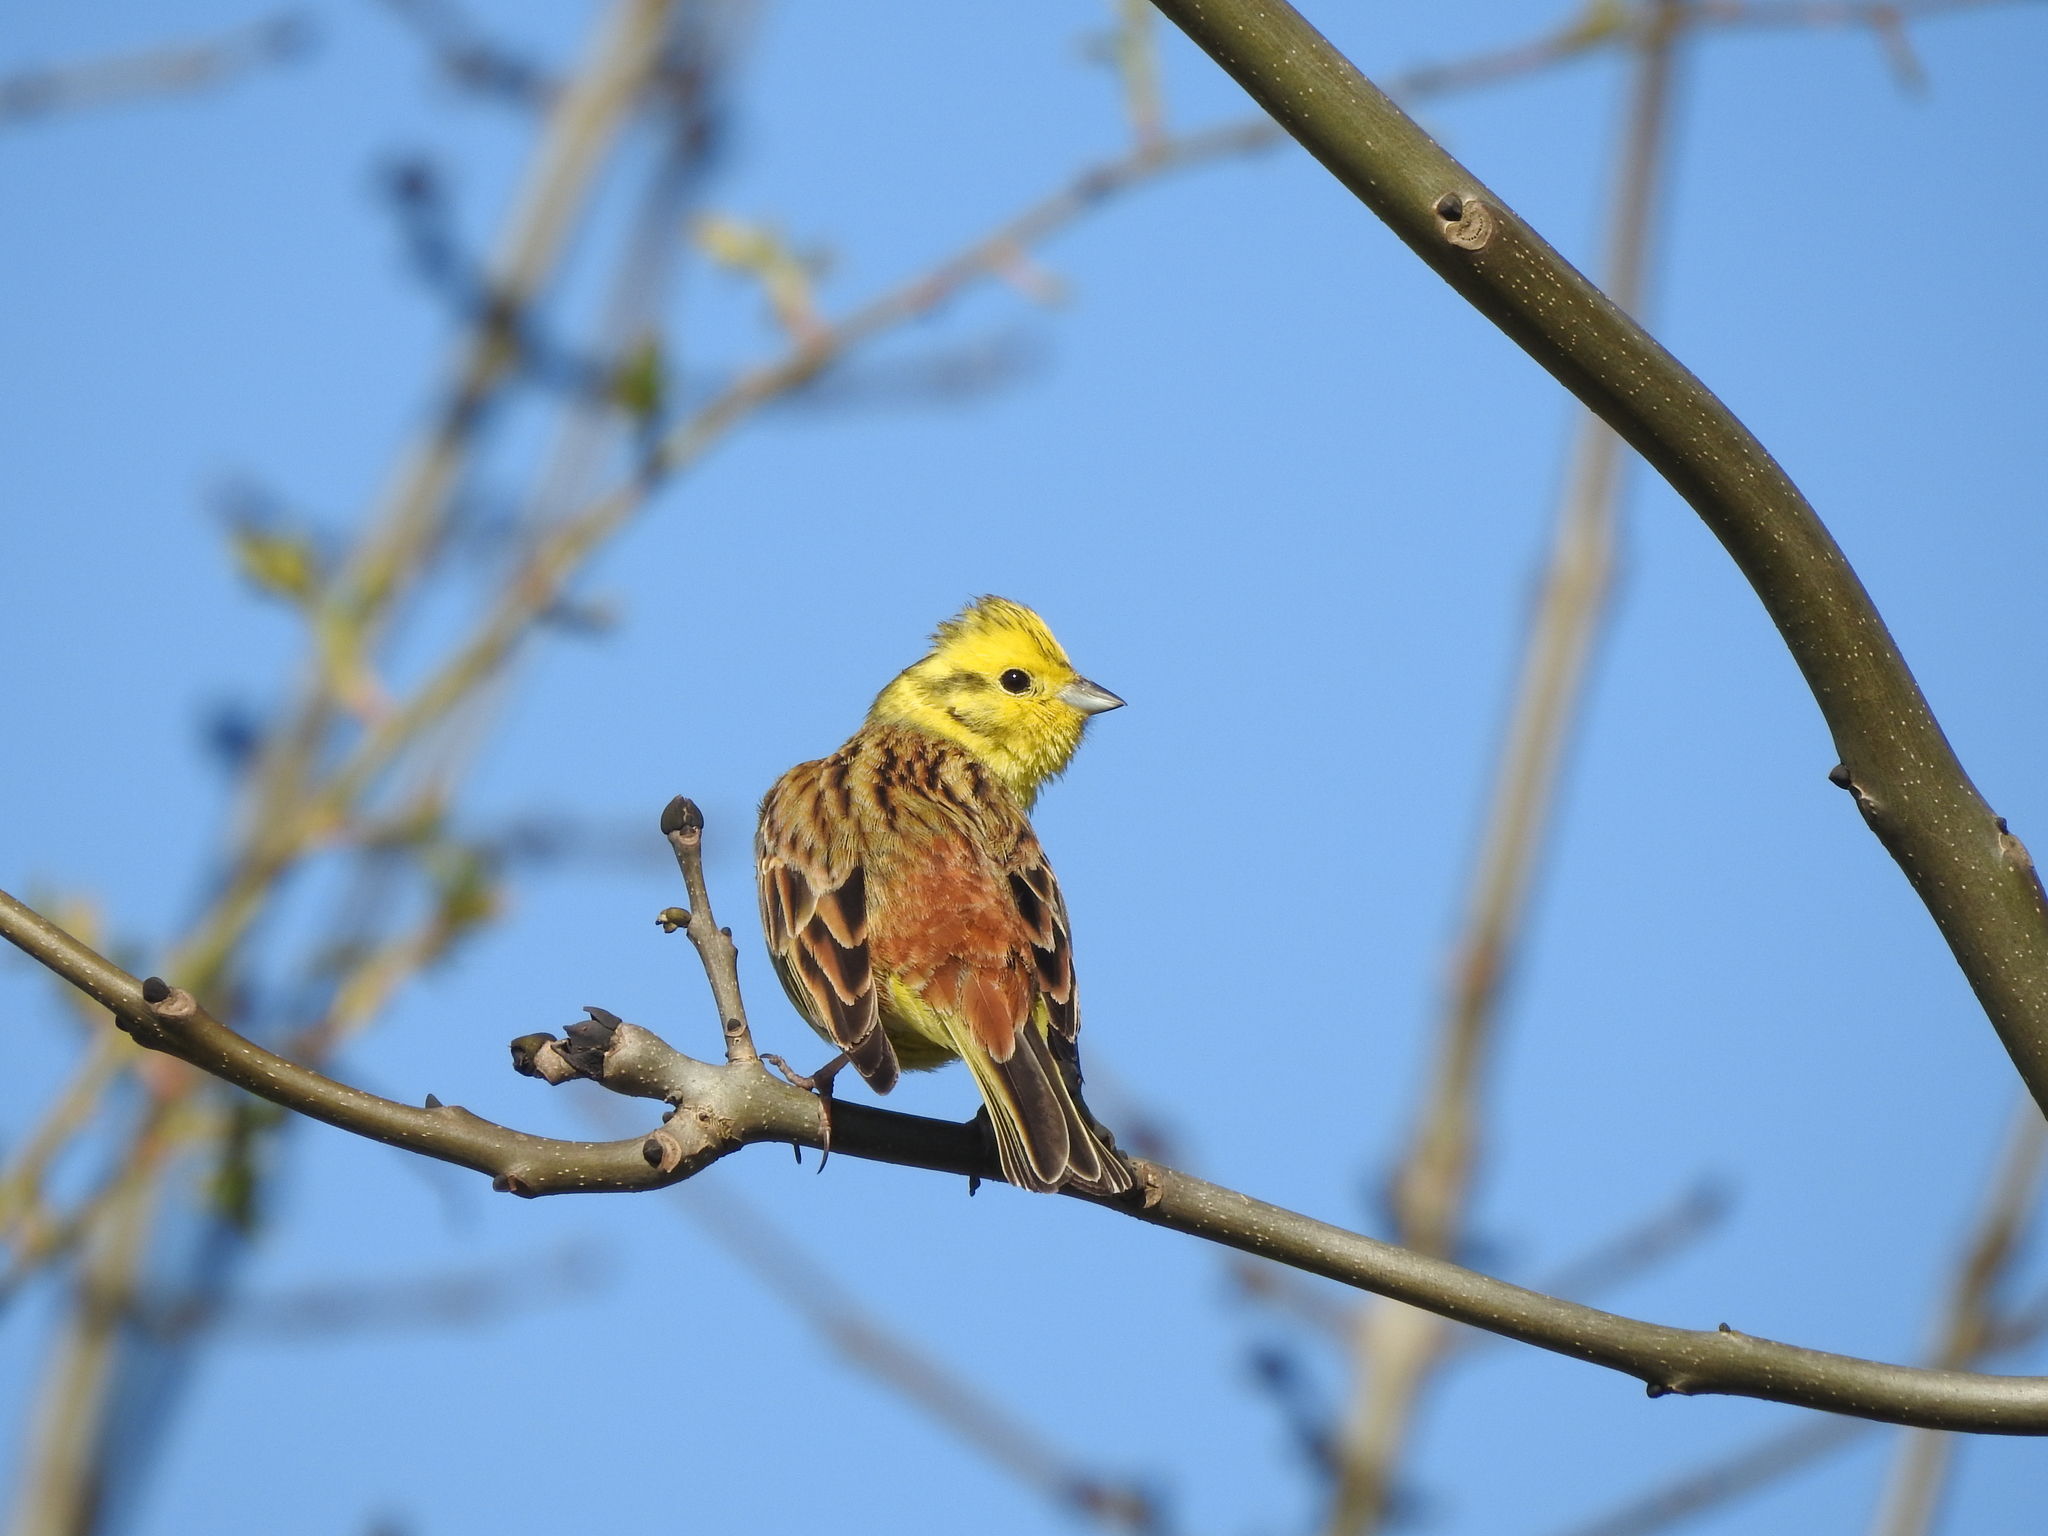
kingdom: Animalia
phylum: Chordata
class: Aves
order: Passeriformes
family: Emberizidae
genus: Emberiza
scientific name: Emberiza citrinella
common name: Yellowhammer
